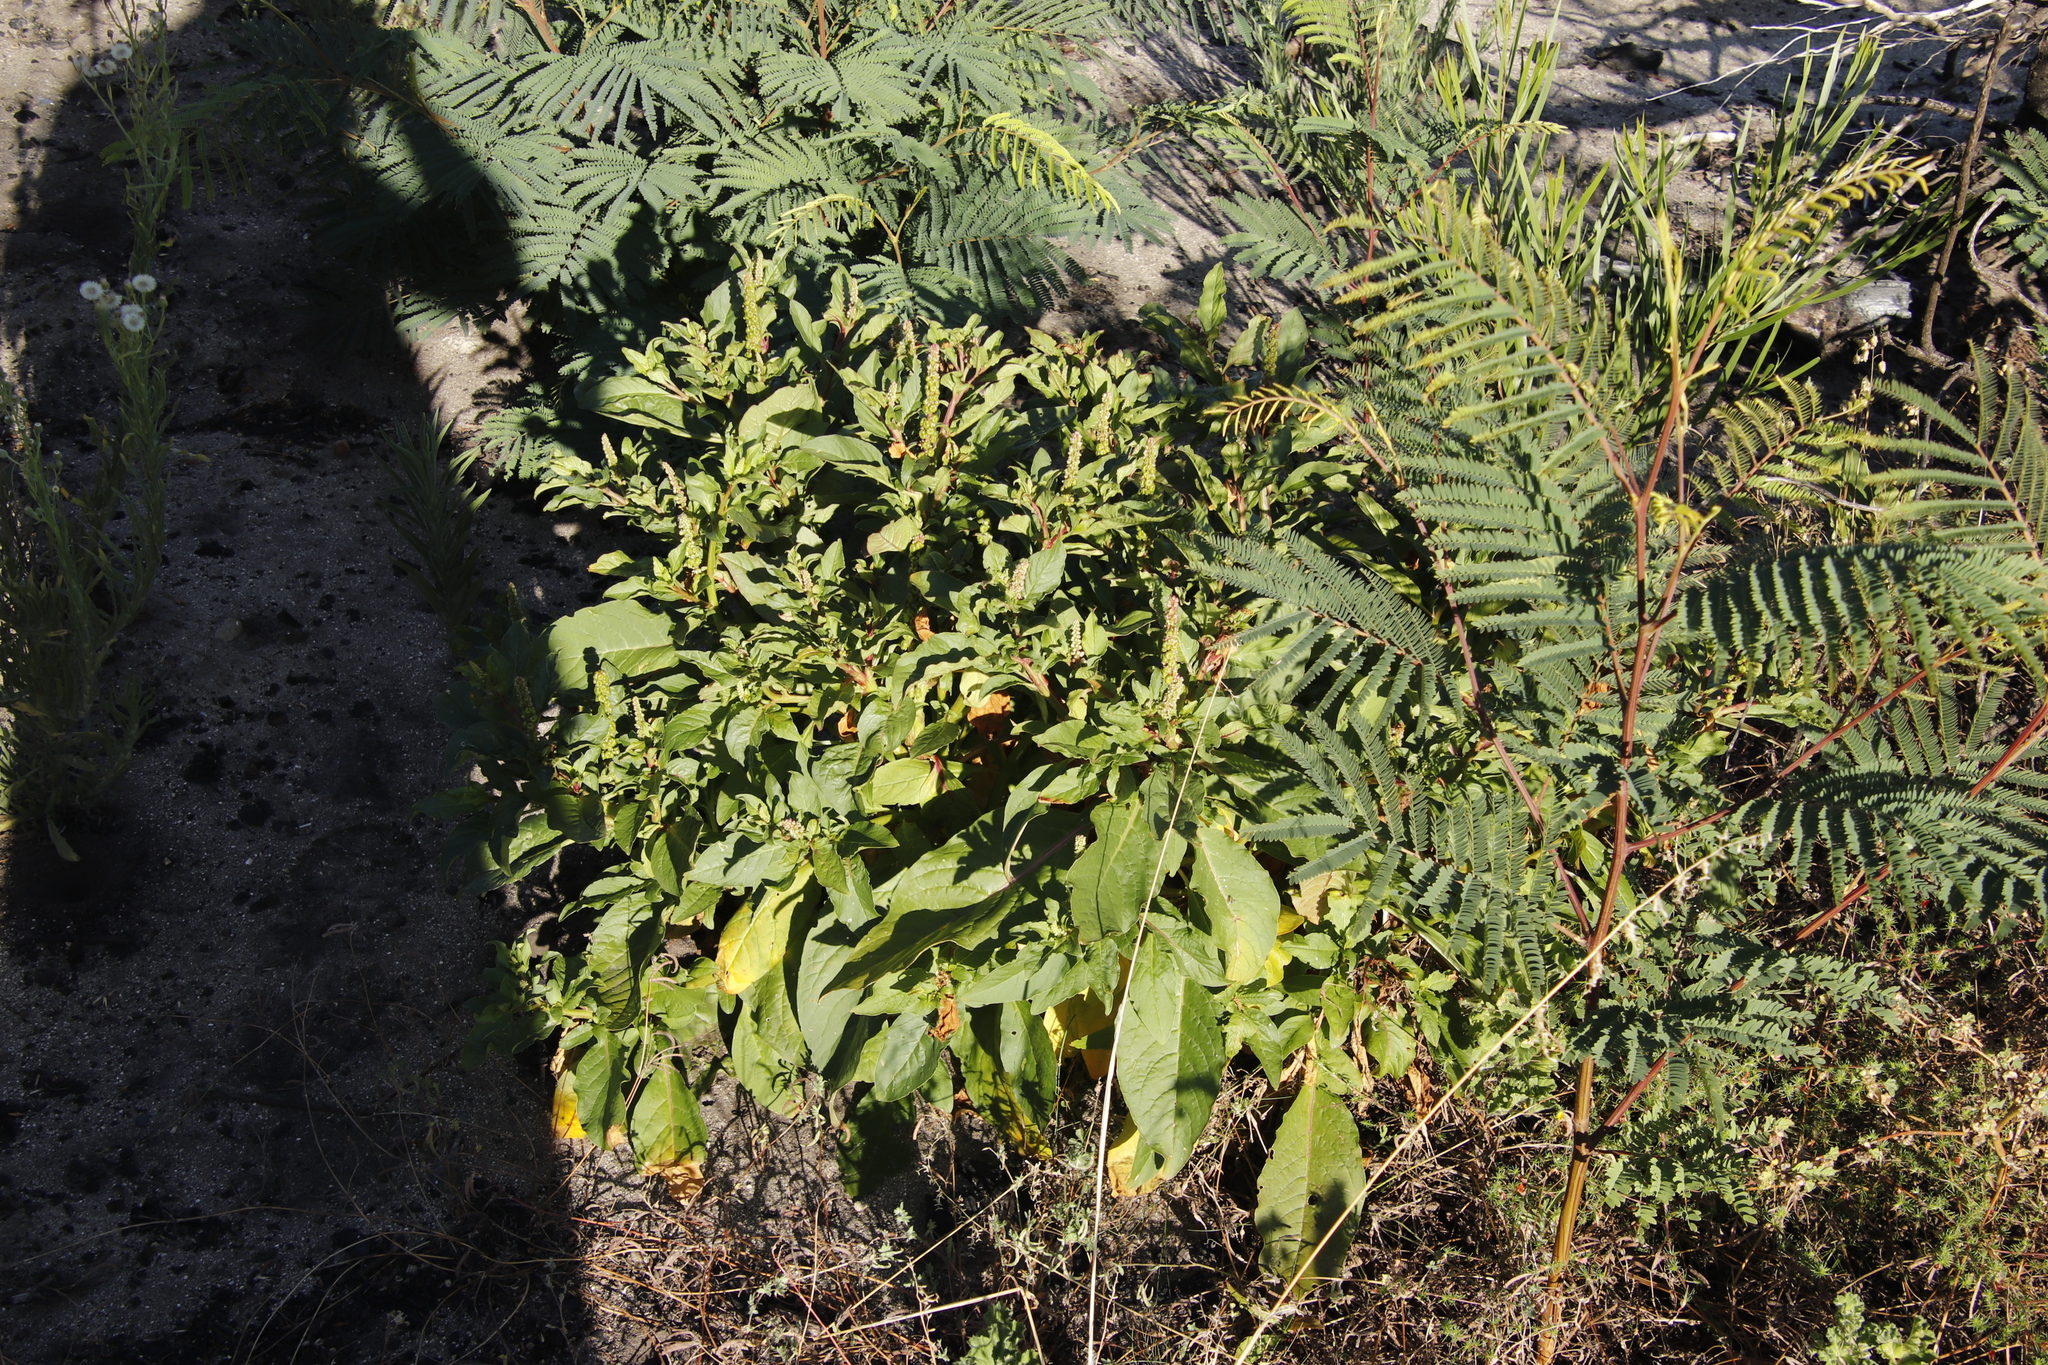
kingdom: Plantae
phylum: Tracheophyta
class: Magnoliopsida
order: Caryophyllales
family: Phytolaccaceae
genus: Phytolacca
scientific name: Phytolacca icosandra
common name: Button pokeweed
